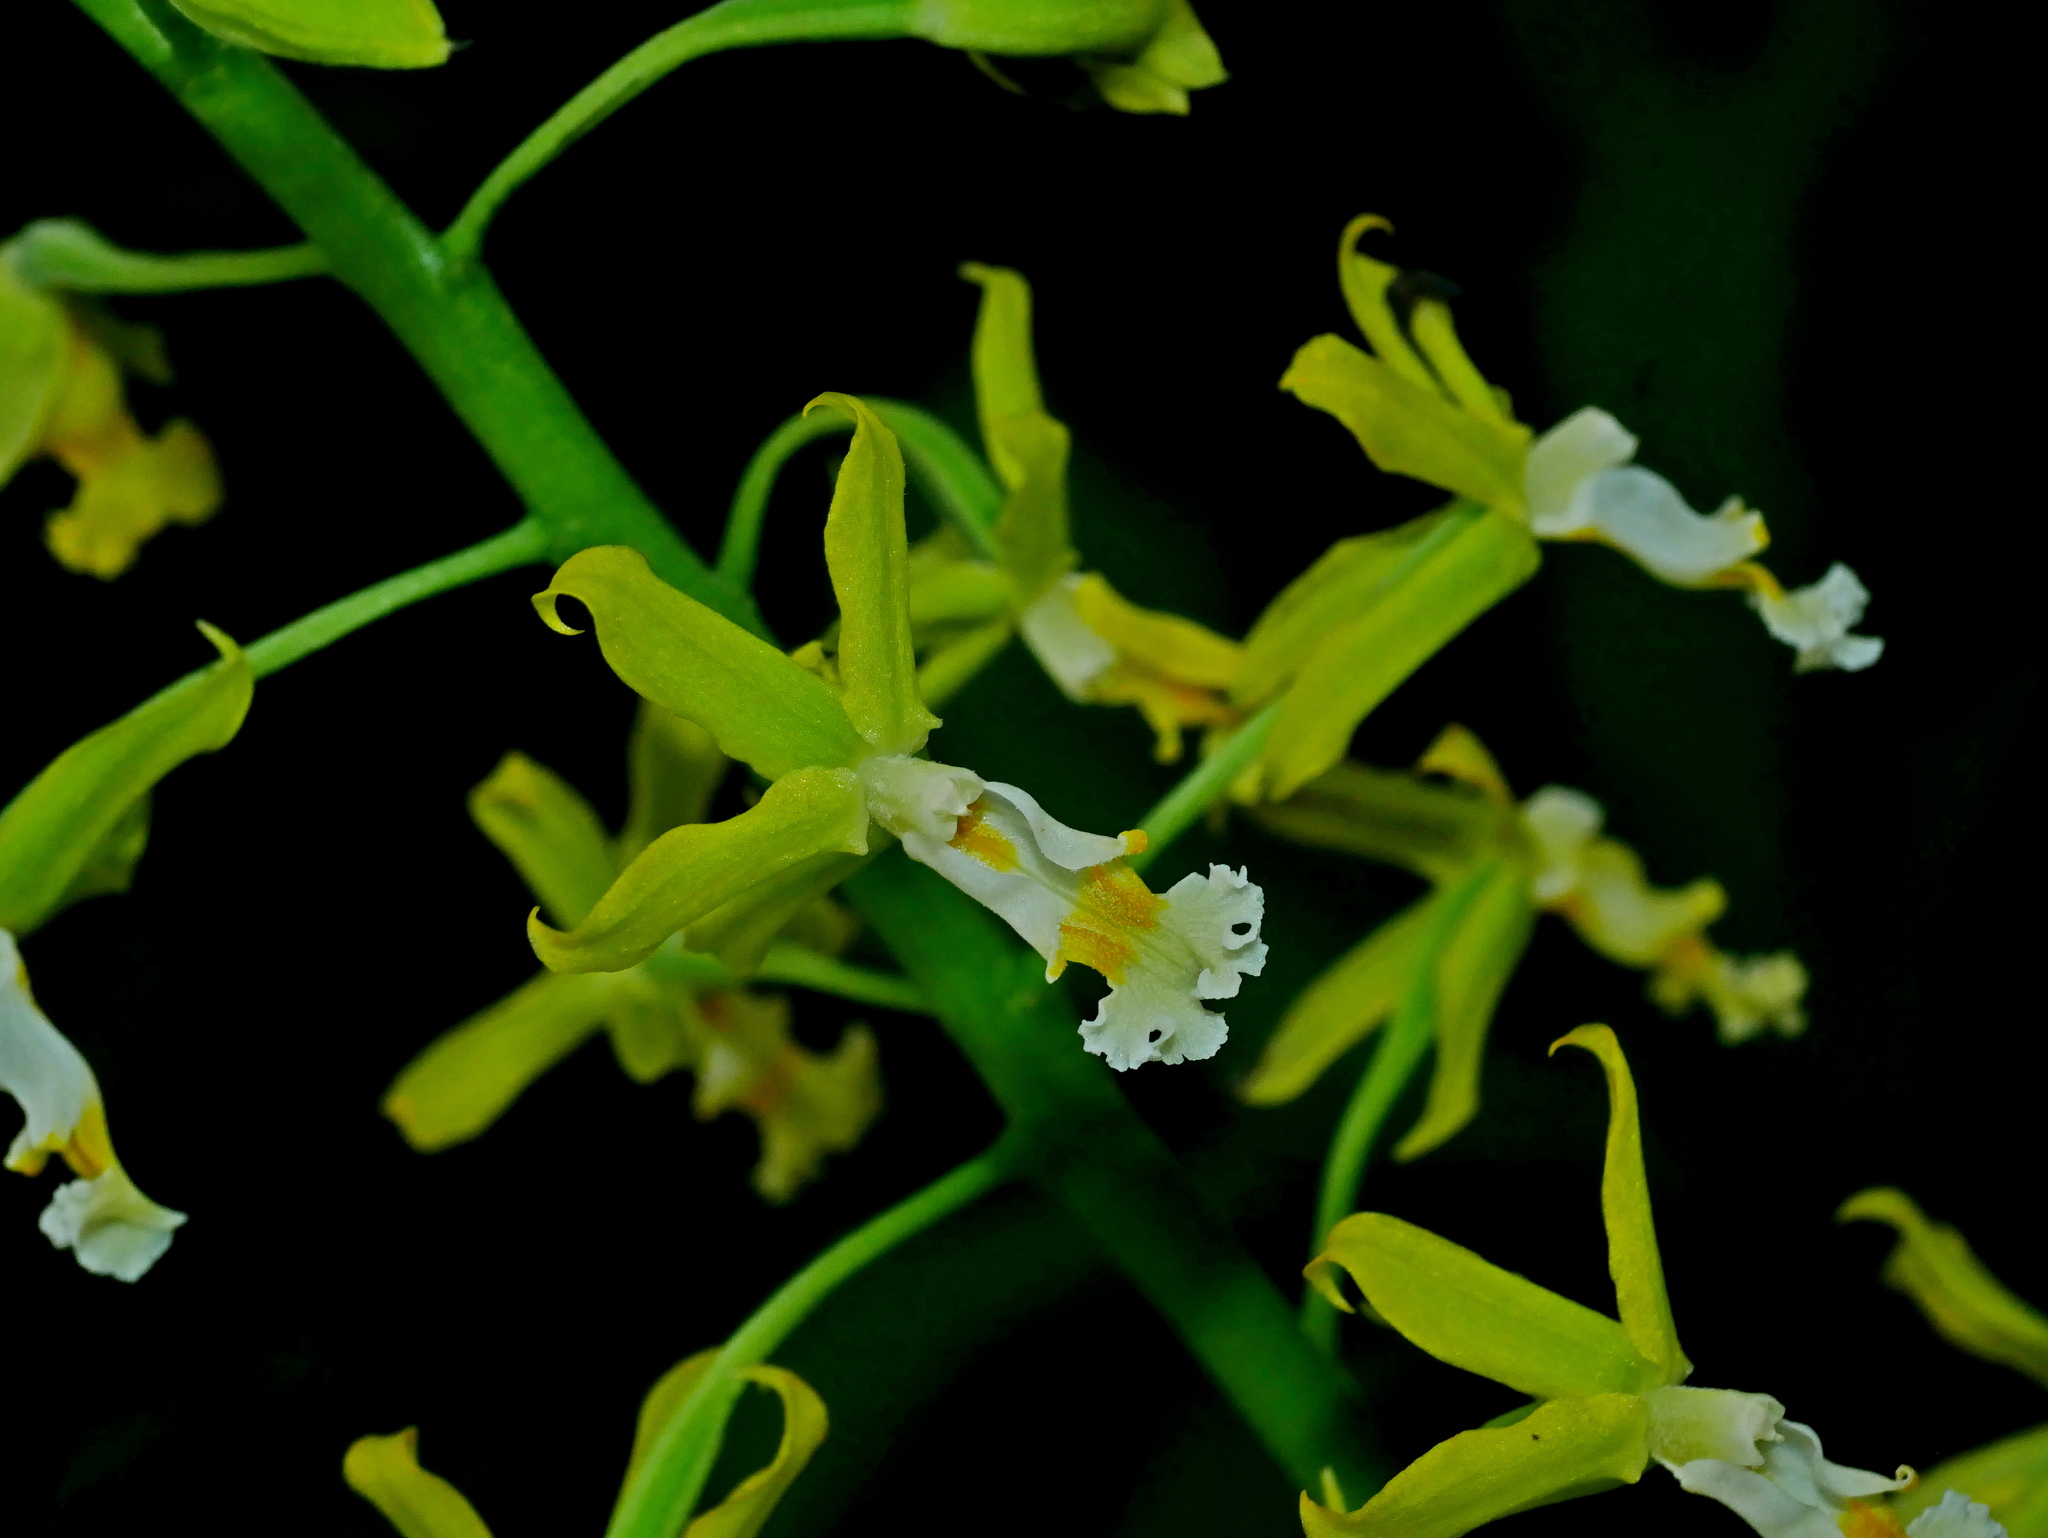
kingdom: Plantae
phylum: Tracheophyta
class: Liliopsida
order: Asparagales
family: Orchidaceae
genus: Calanthe
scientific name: Calanthe obcordata
